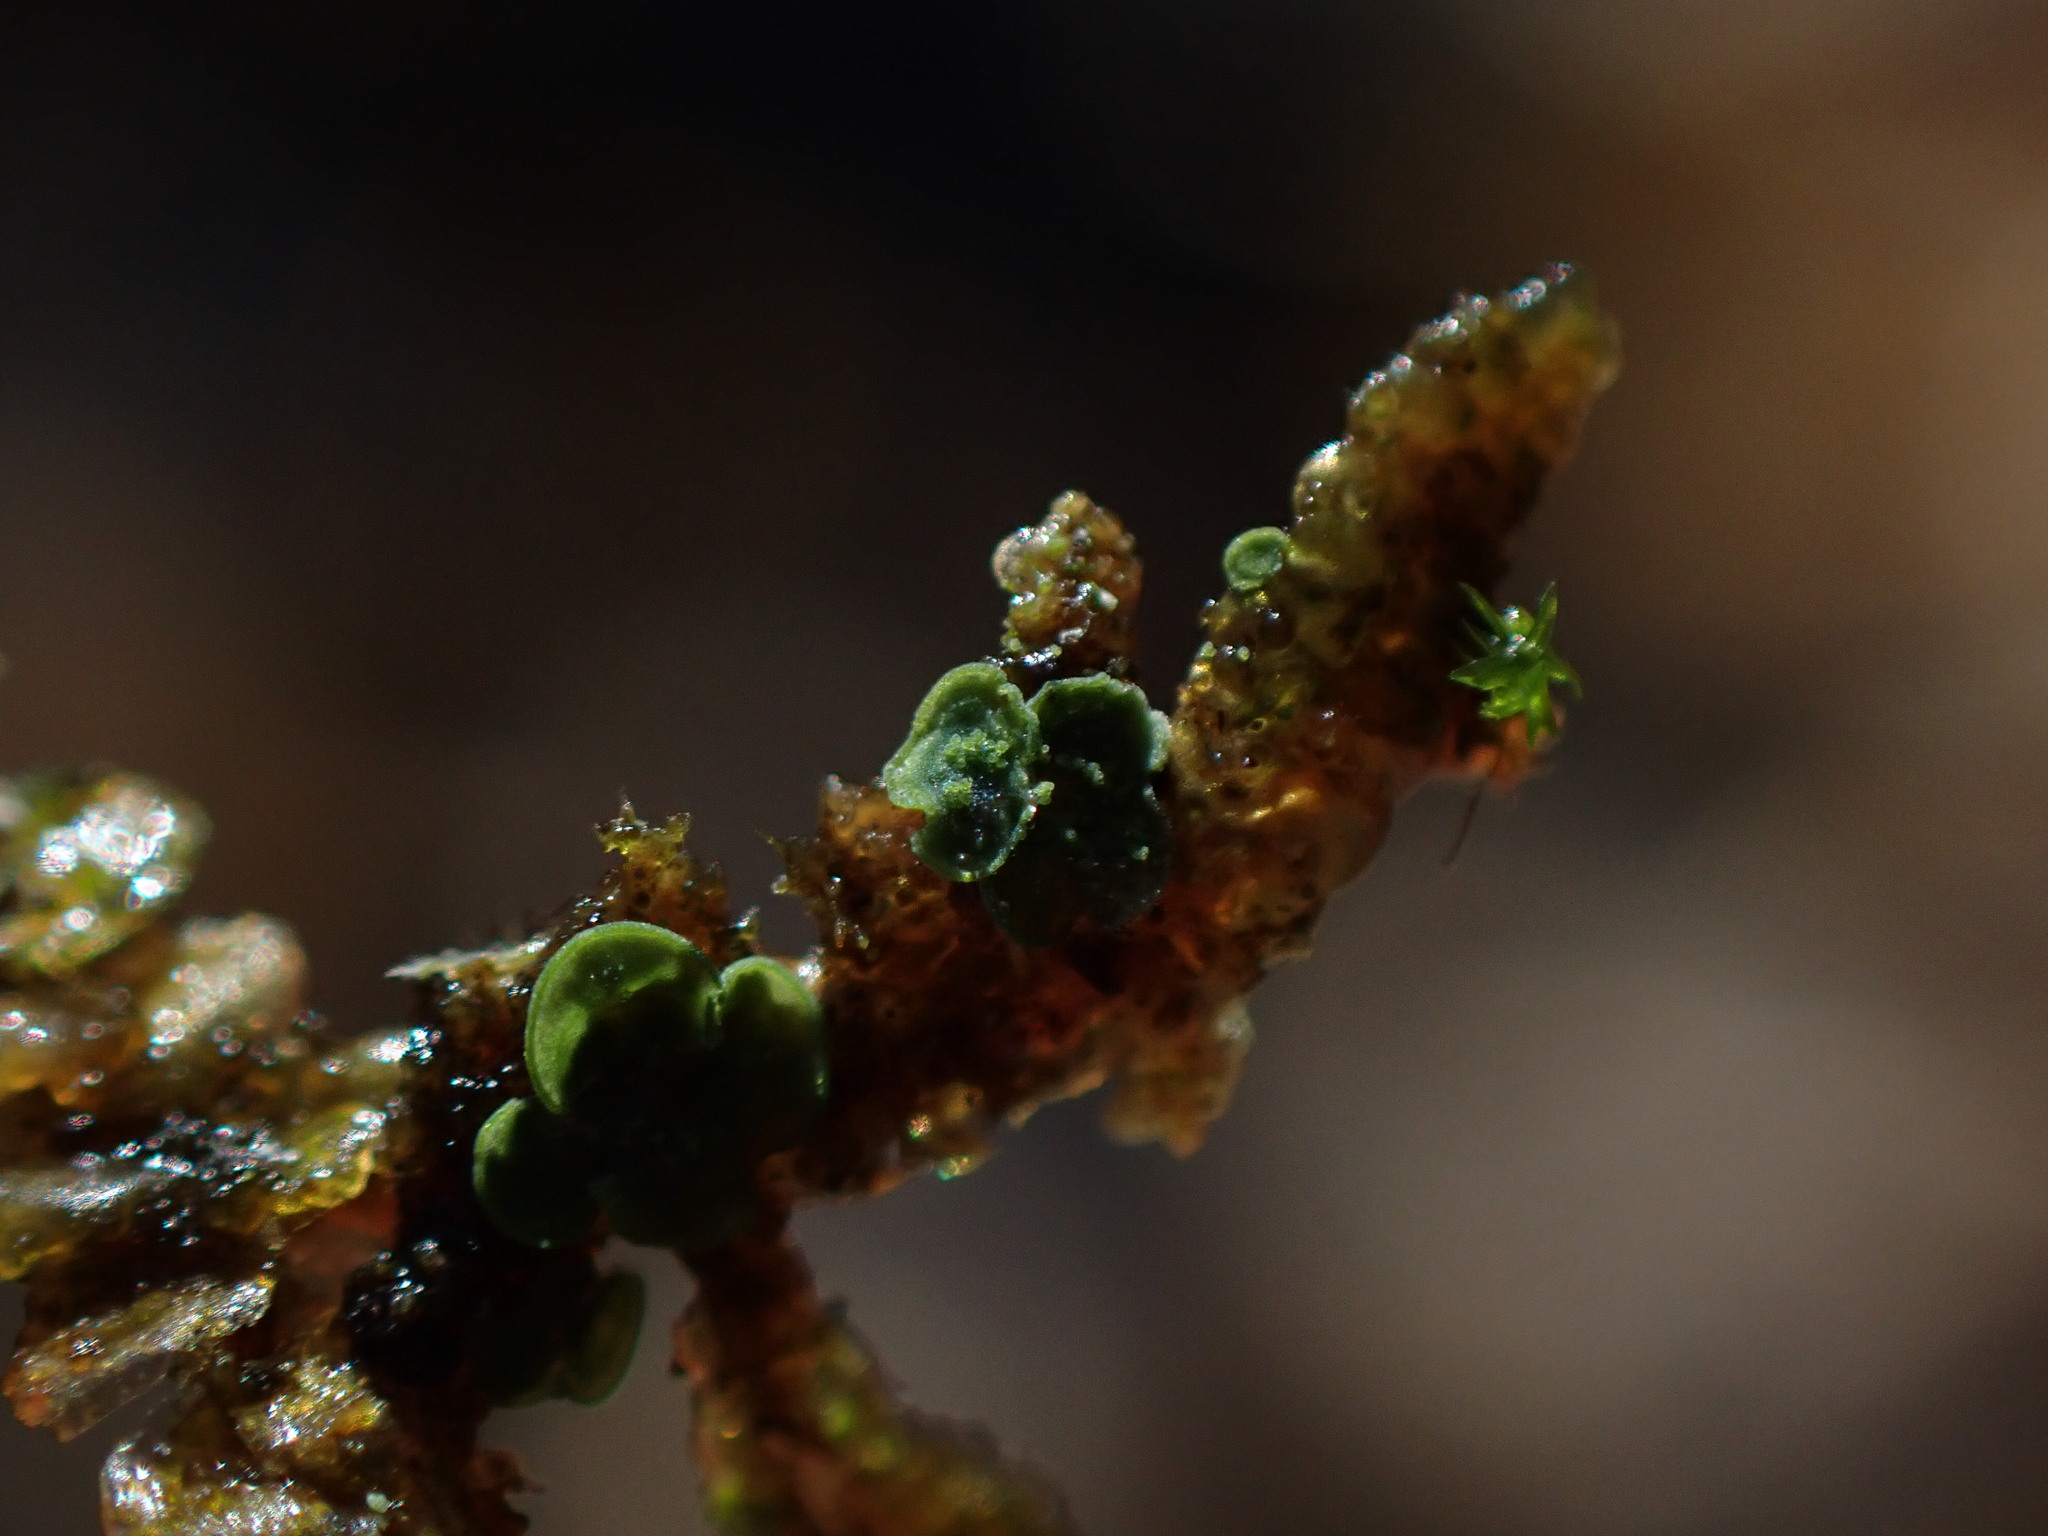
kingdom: Fungi
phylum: Ascomycota
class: Eurotiomycetes
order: Verrucariales
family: Verrucariaceae
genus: Normandina
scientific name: Normandina pulchella
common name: Elf ears lichen
